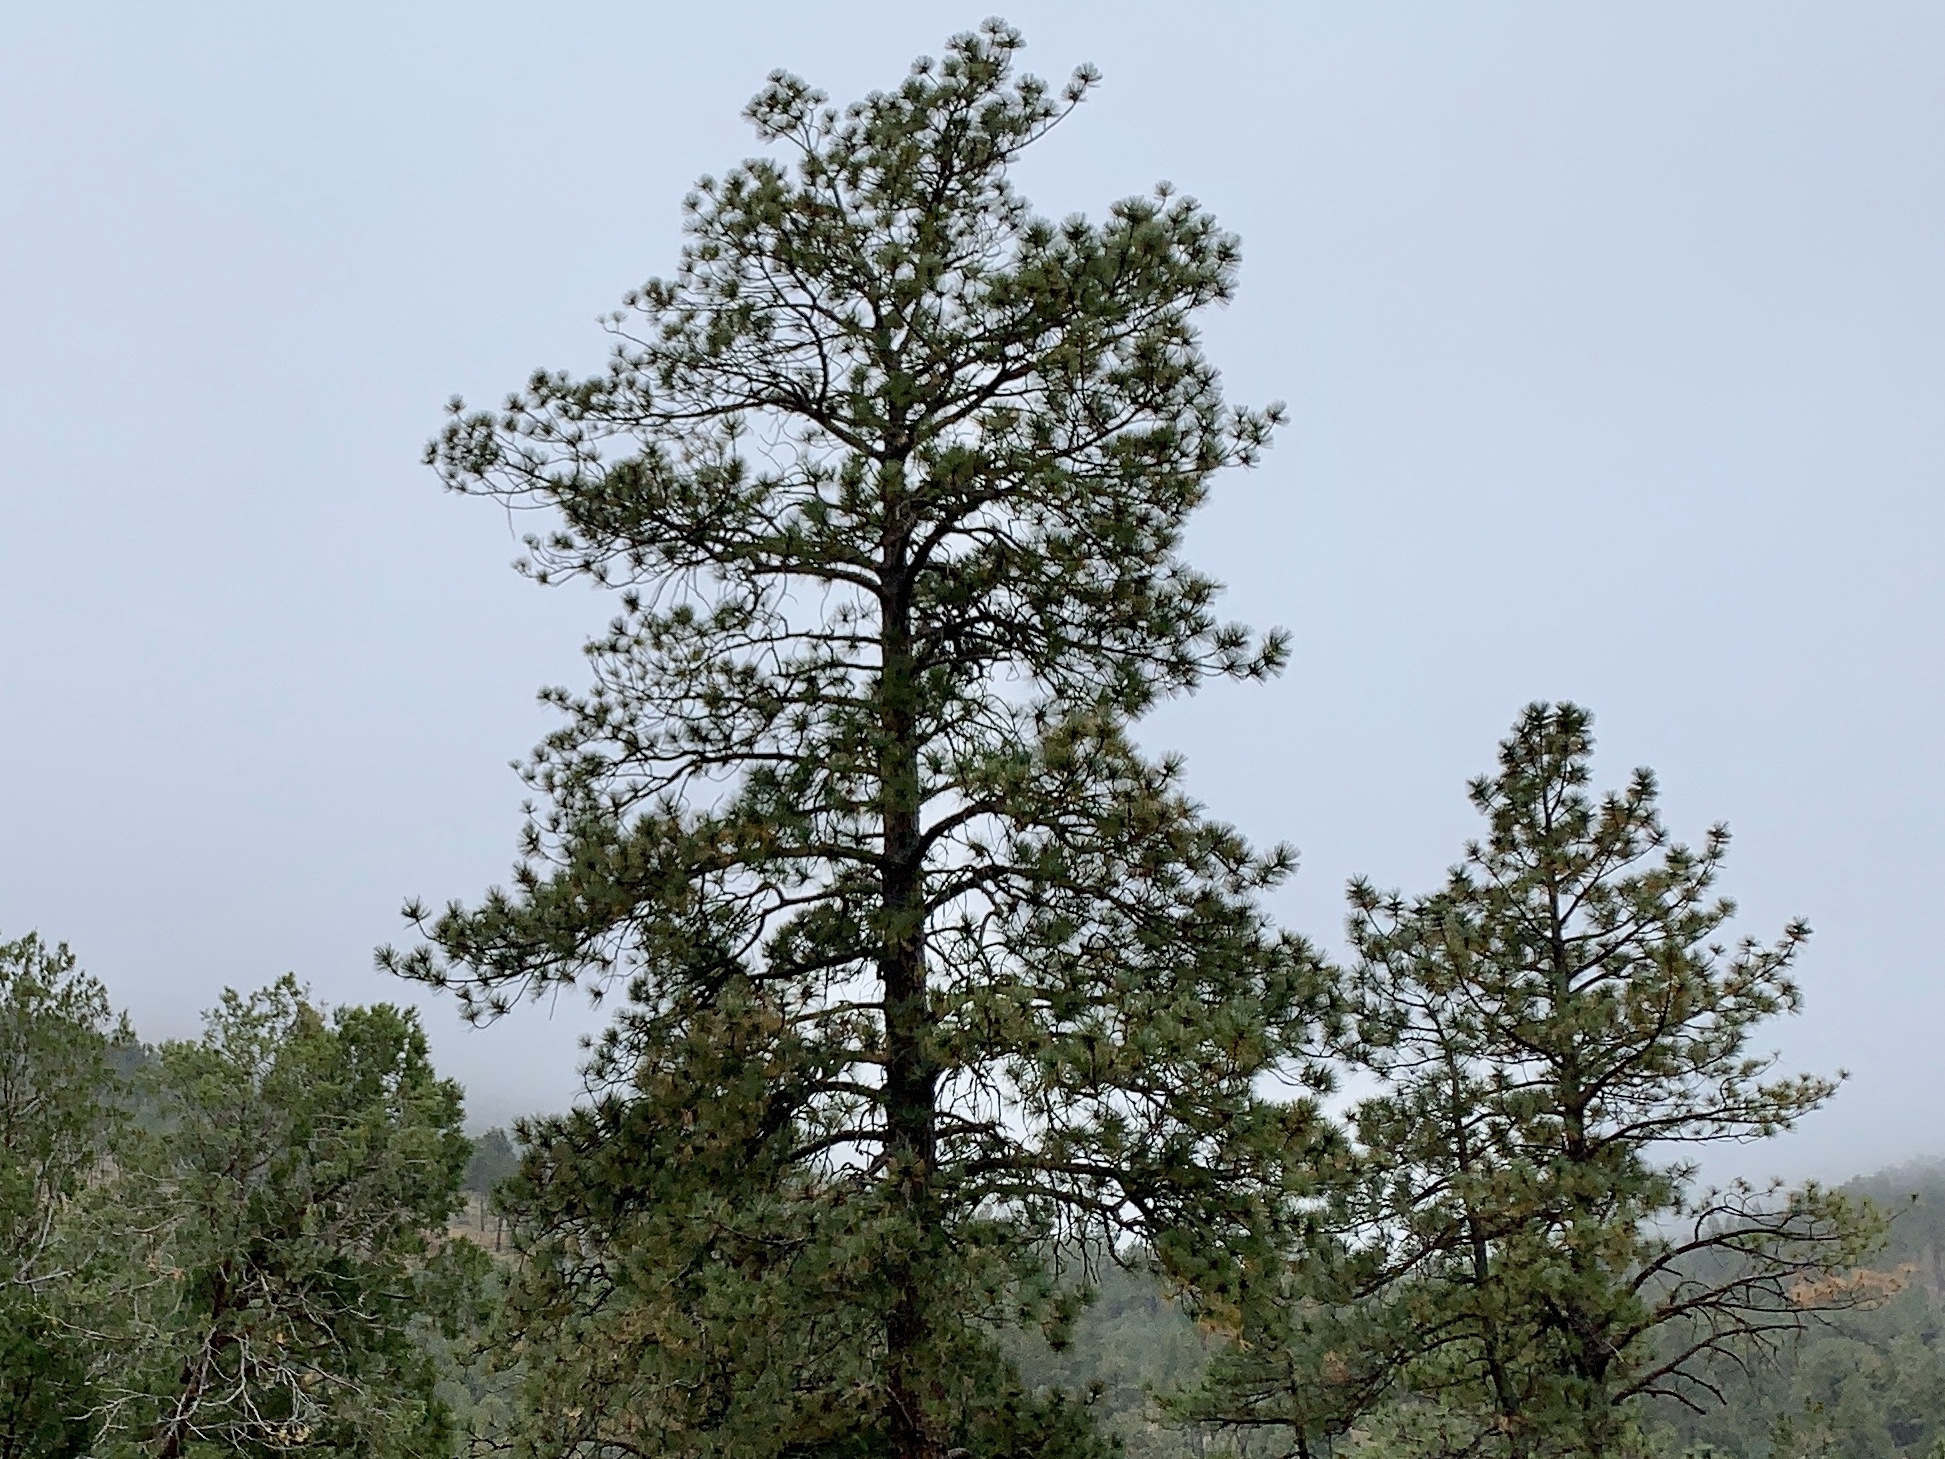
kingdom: Plantae
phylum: Tracheophyta
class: Pinopsida
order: Pinales
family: Pinaceae
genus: Pinus
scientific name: Pinus ponderosa
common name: Western yellow-pine
